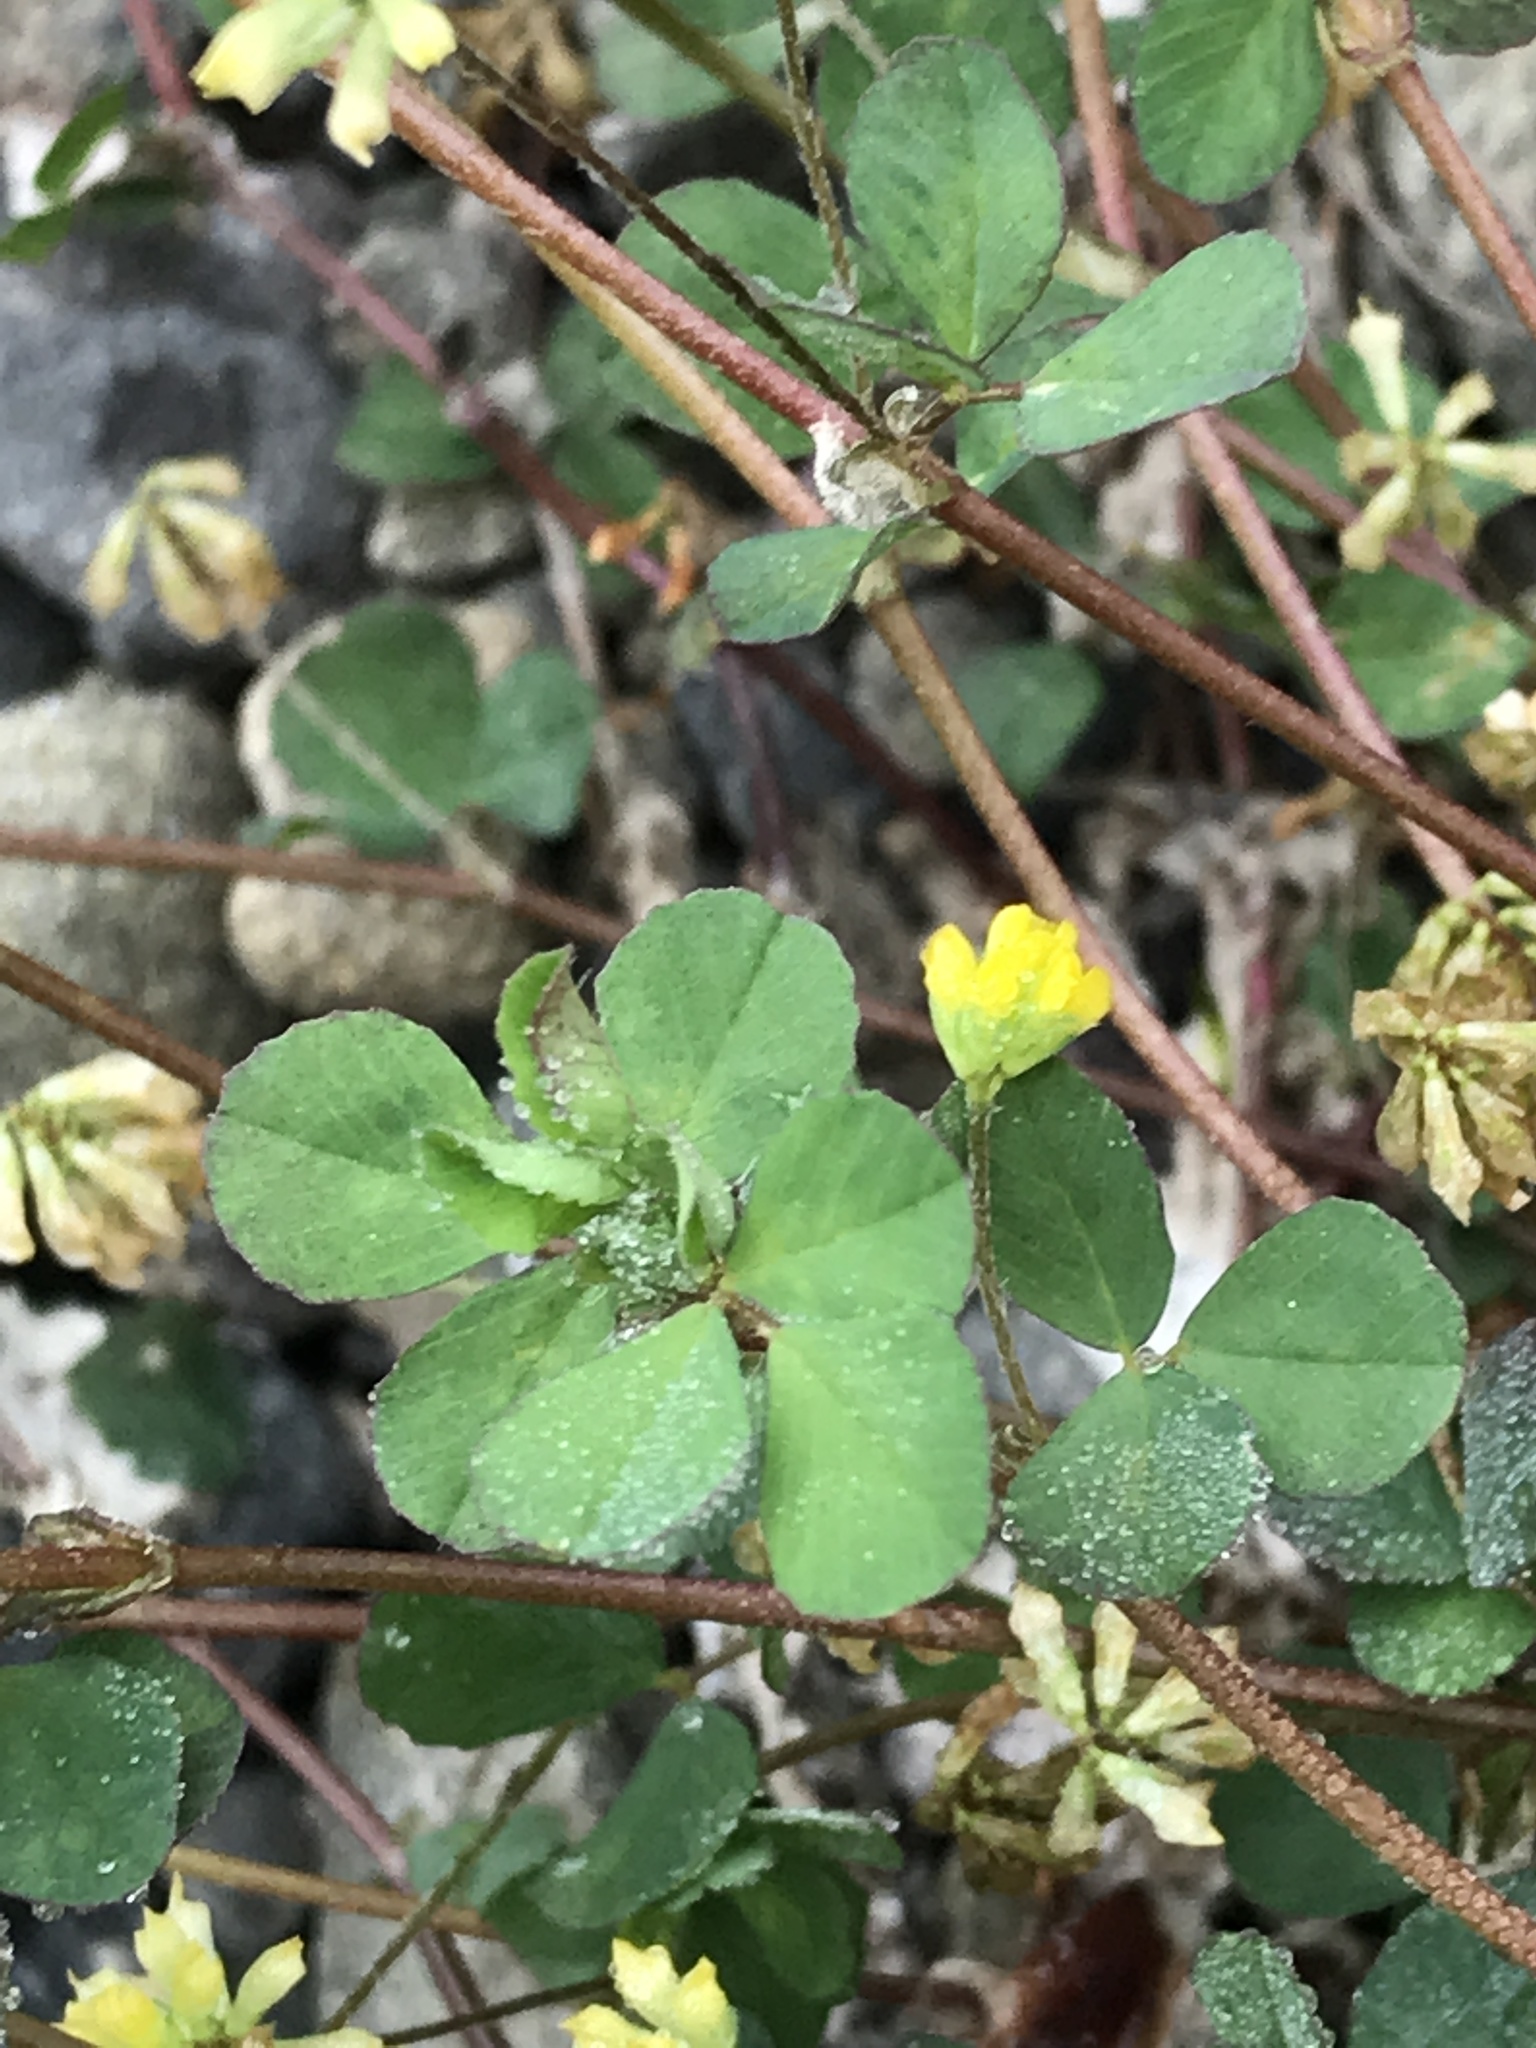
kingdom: Plantae
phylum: Tracheophyta
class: Magnoliopsida
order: Fabales
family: Fabaceae
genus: Trifolium
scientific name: Trifolium dubium
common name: Suckling clover
